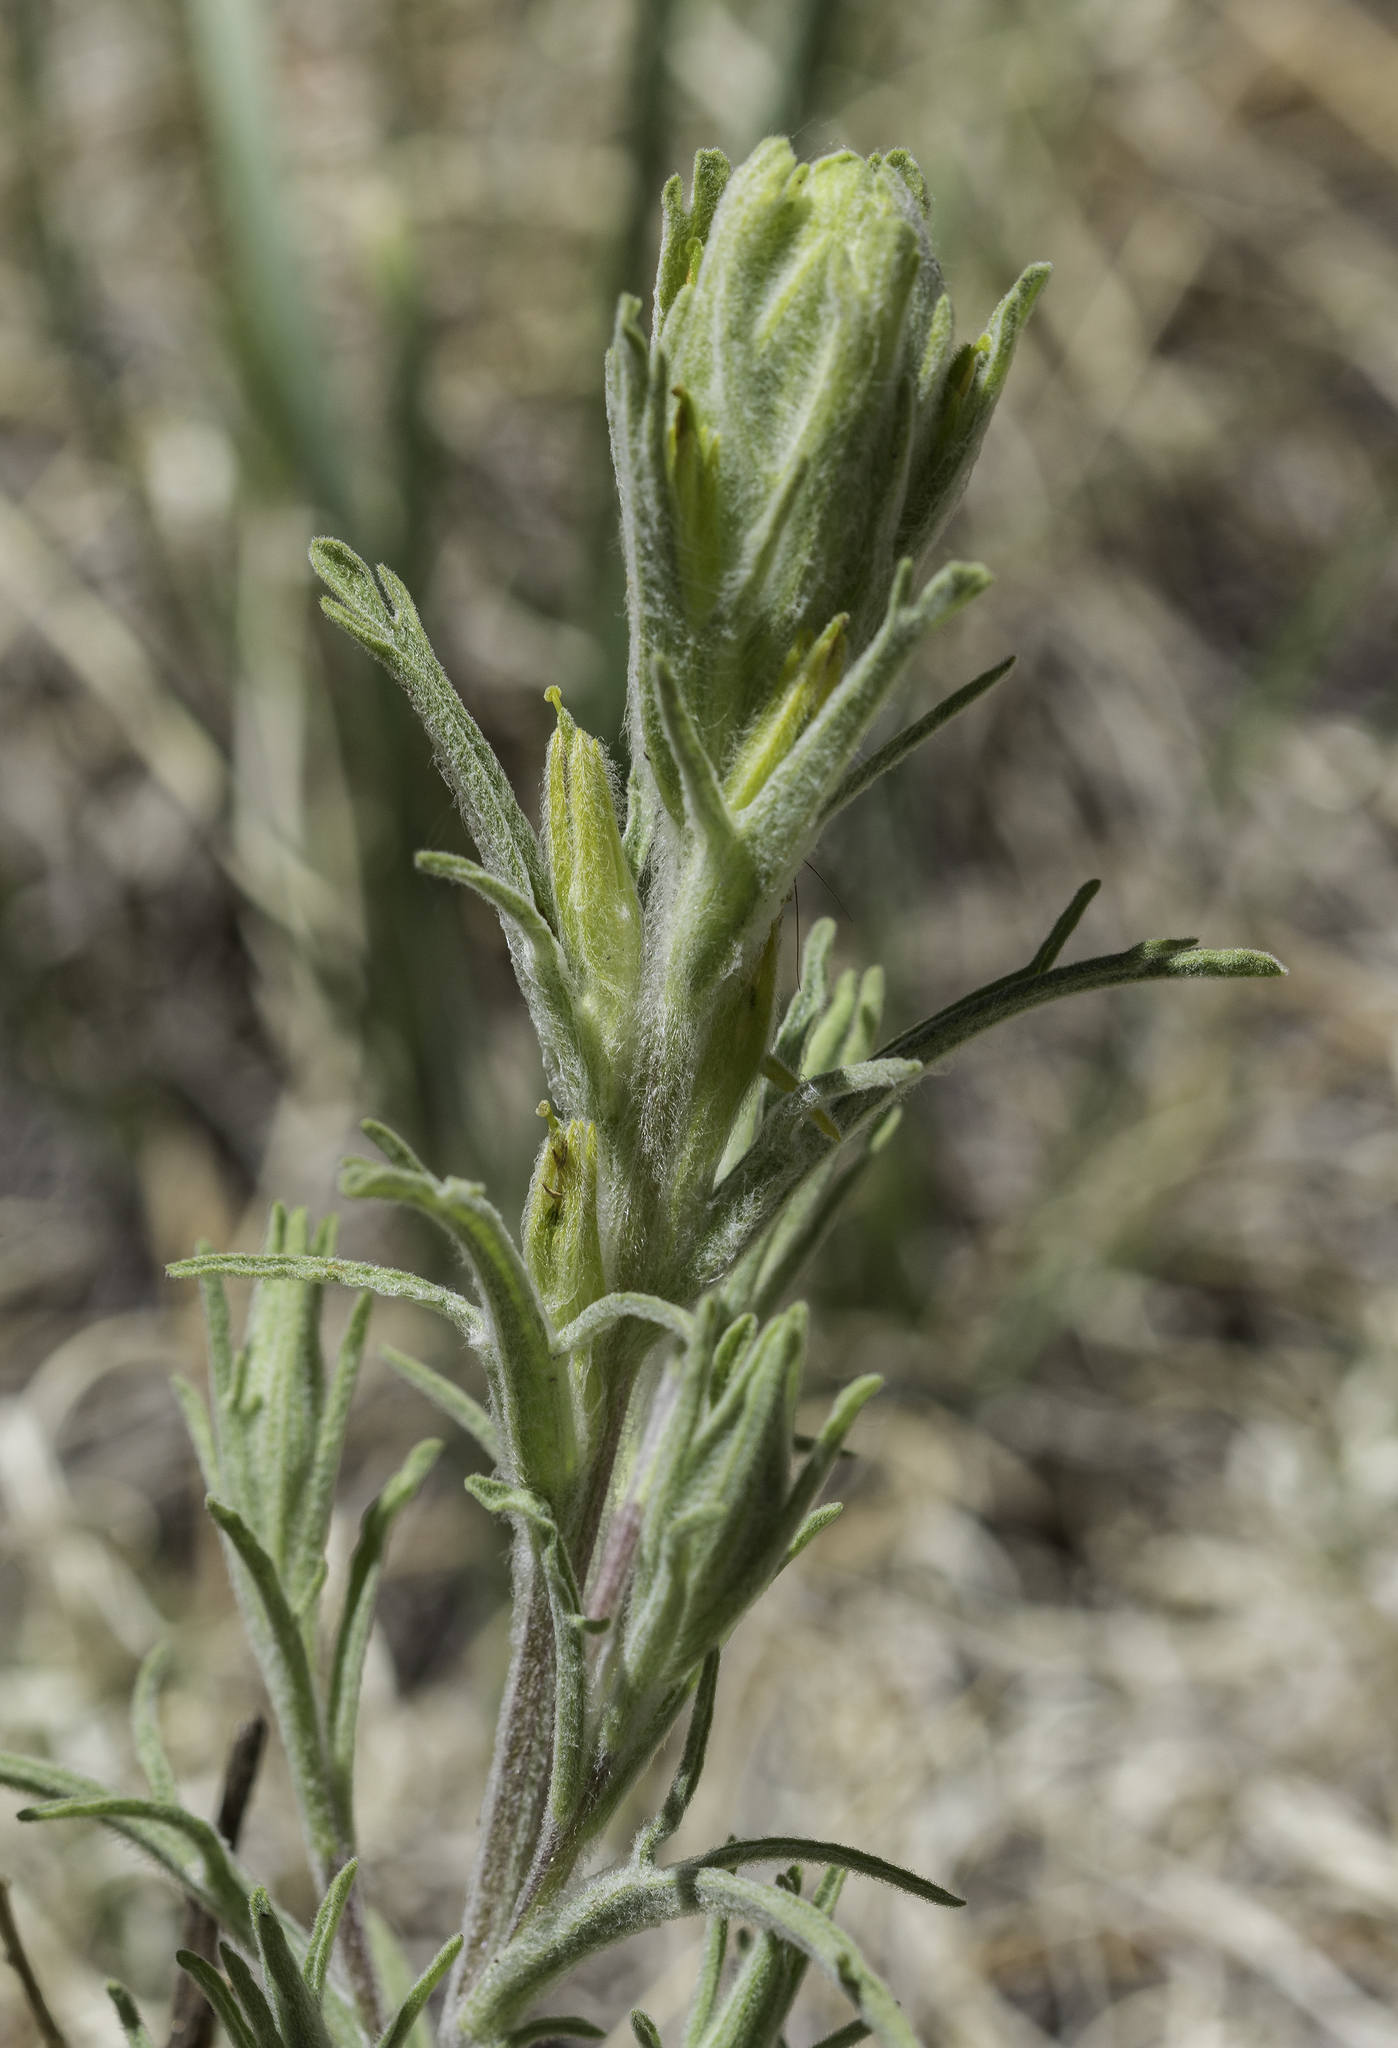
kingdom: Plantae
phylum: Tracheophyta
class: Magnoliopsida
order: Lamiales
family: Orobanchaceae
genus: Castilleja
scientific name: Castilleja lineata
